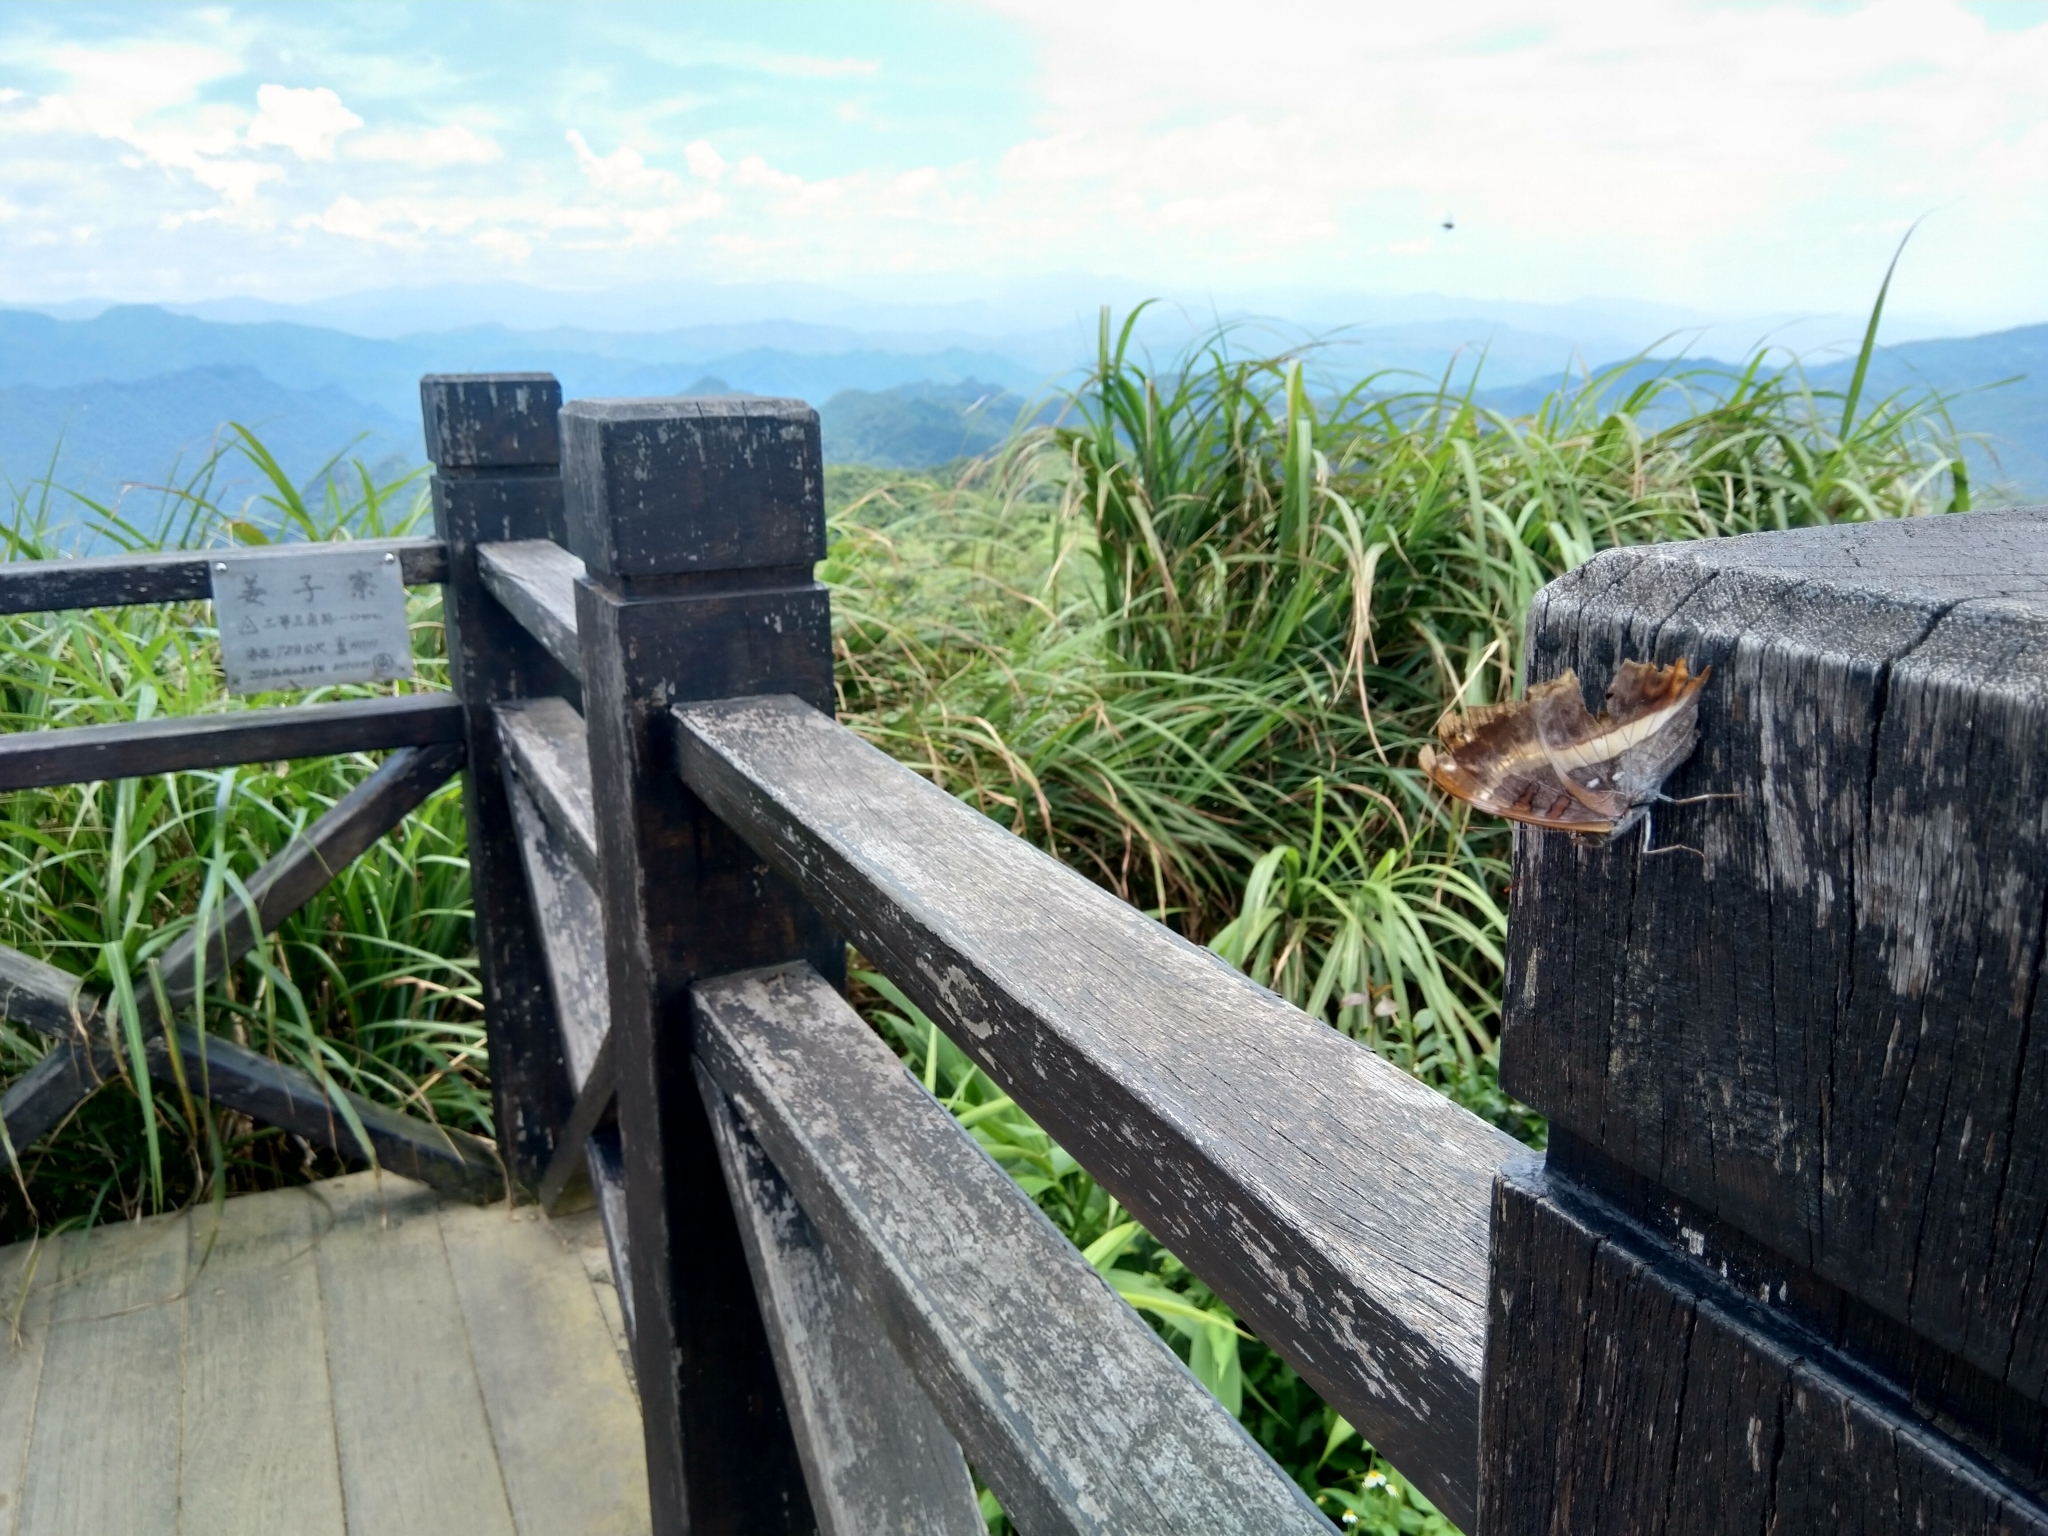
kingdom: Animalia
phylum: Arthropoda
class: Insecta
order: Lepidoptera
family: Nymphalidae
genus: Limenitis
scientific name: Limenitis dudu
